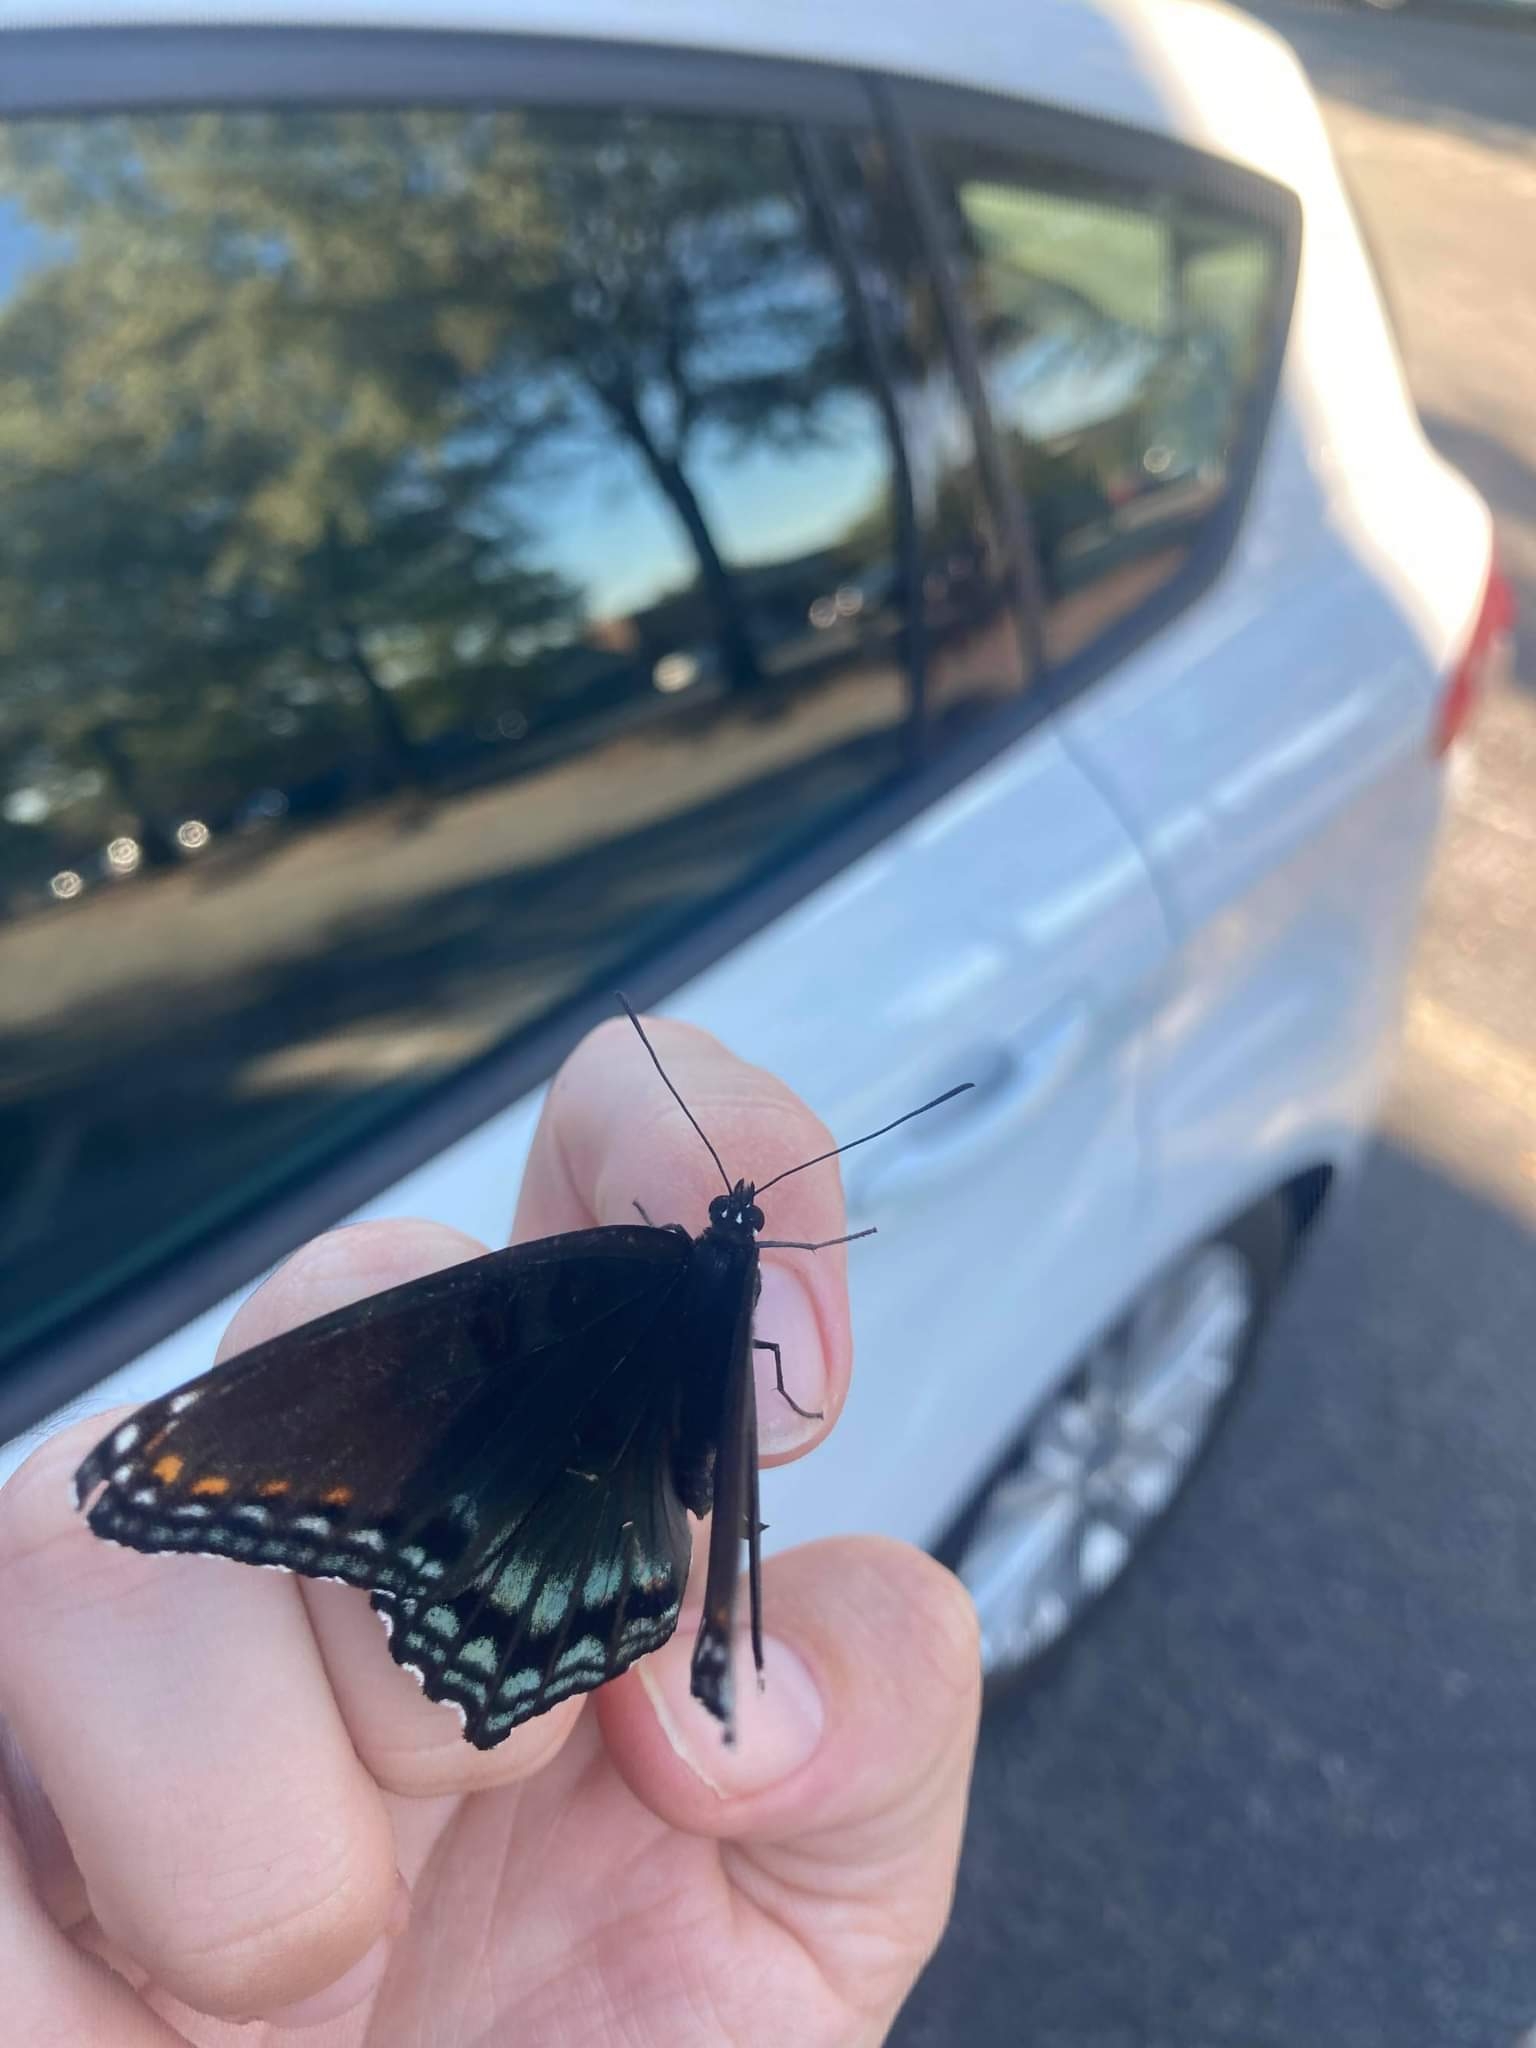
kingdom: Animalia
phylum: Arthropoda
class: Insecta
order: Lepidoptera
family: Nymphalidae
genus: Limenitis
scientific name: Limenitis astyanax
